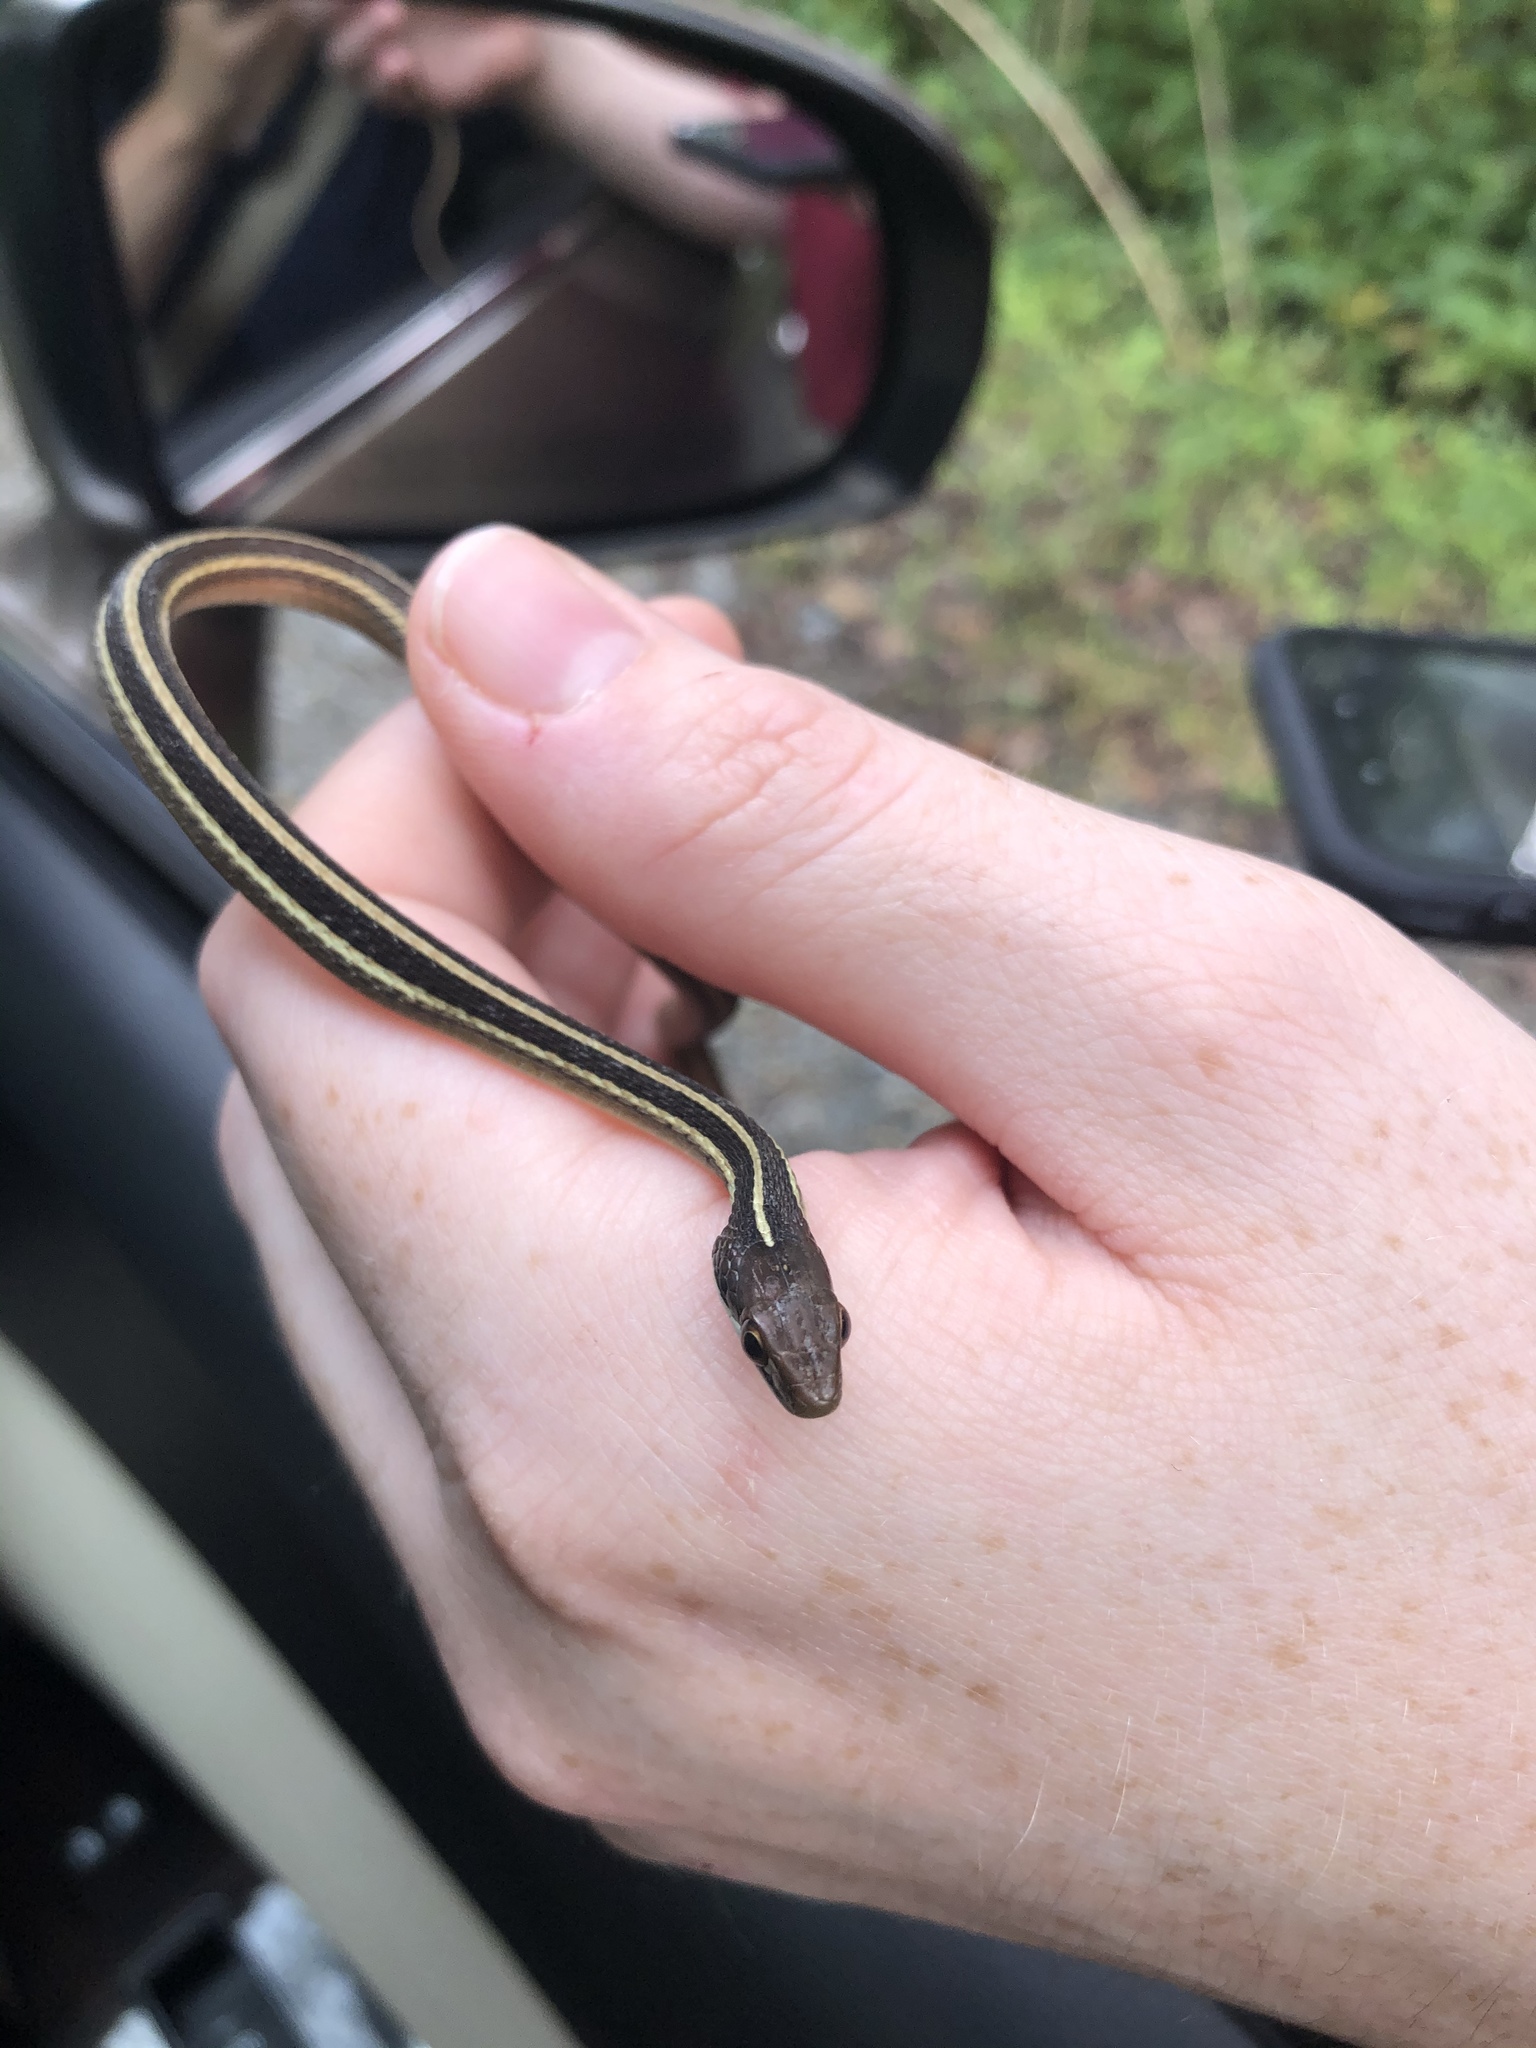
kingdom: Animalia
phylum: Chordata
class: Squamata
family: Colubridae
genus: Thamnophis
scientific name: Thamnophis saurita
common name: Eastern ribbonsnake
